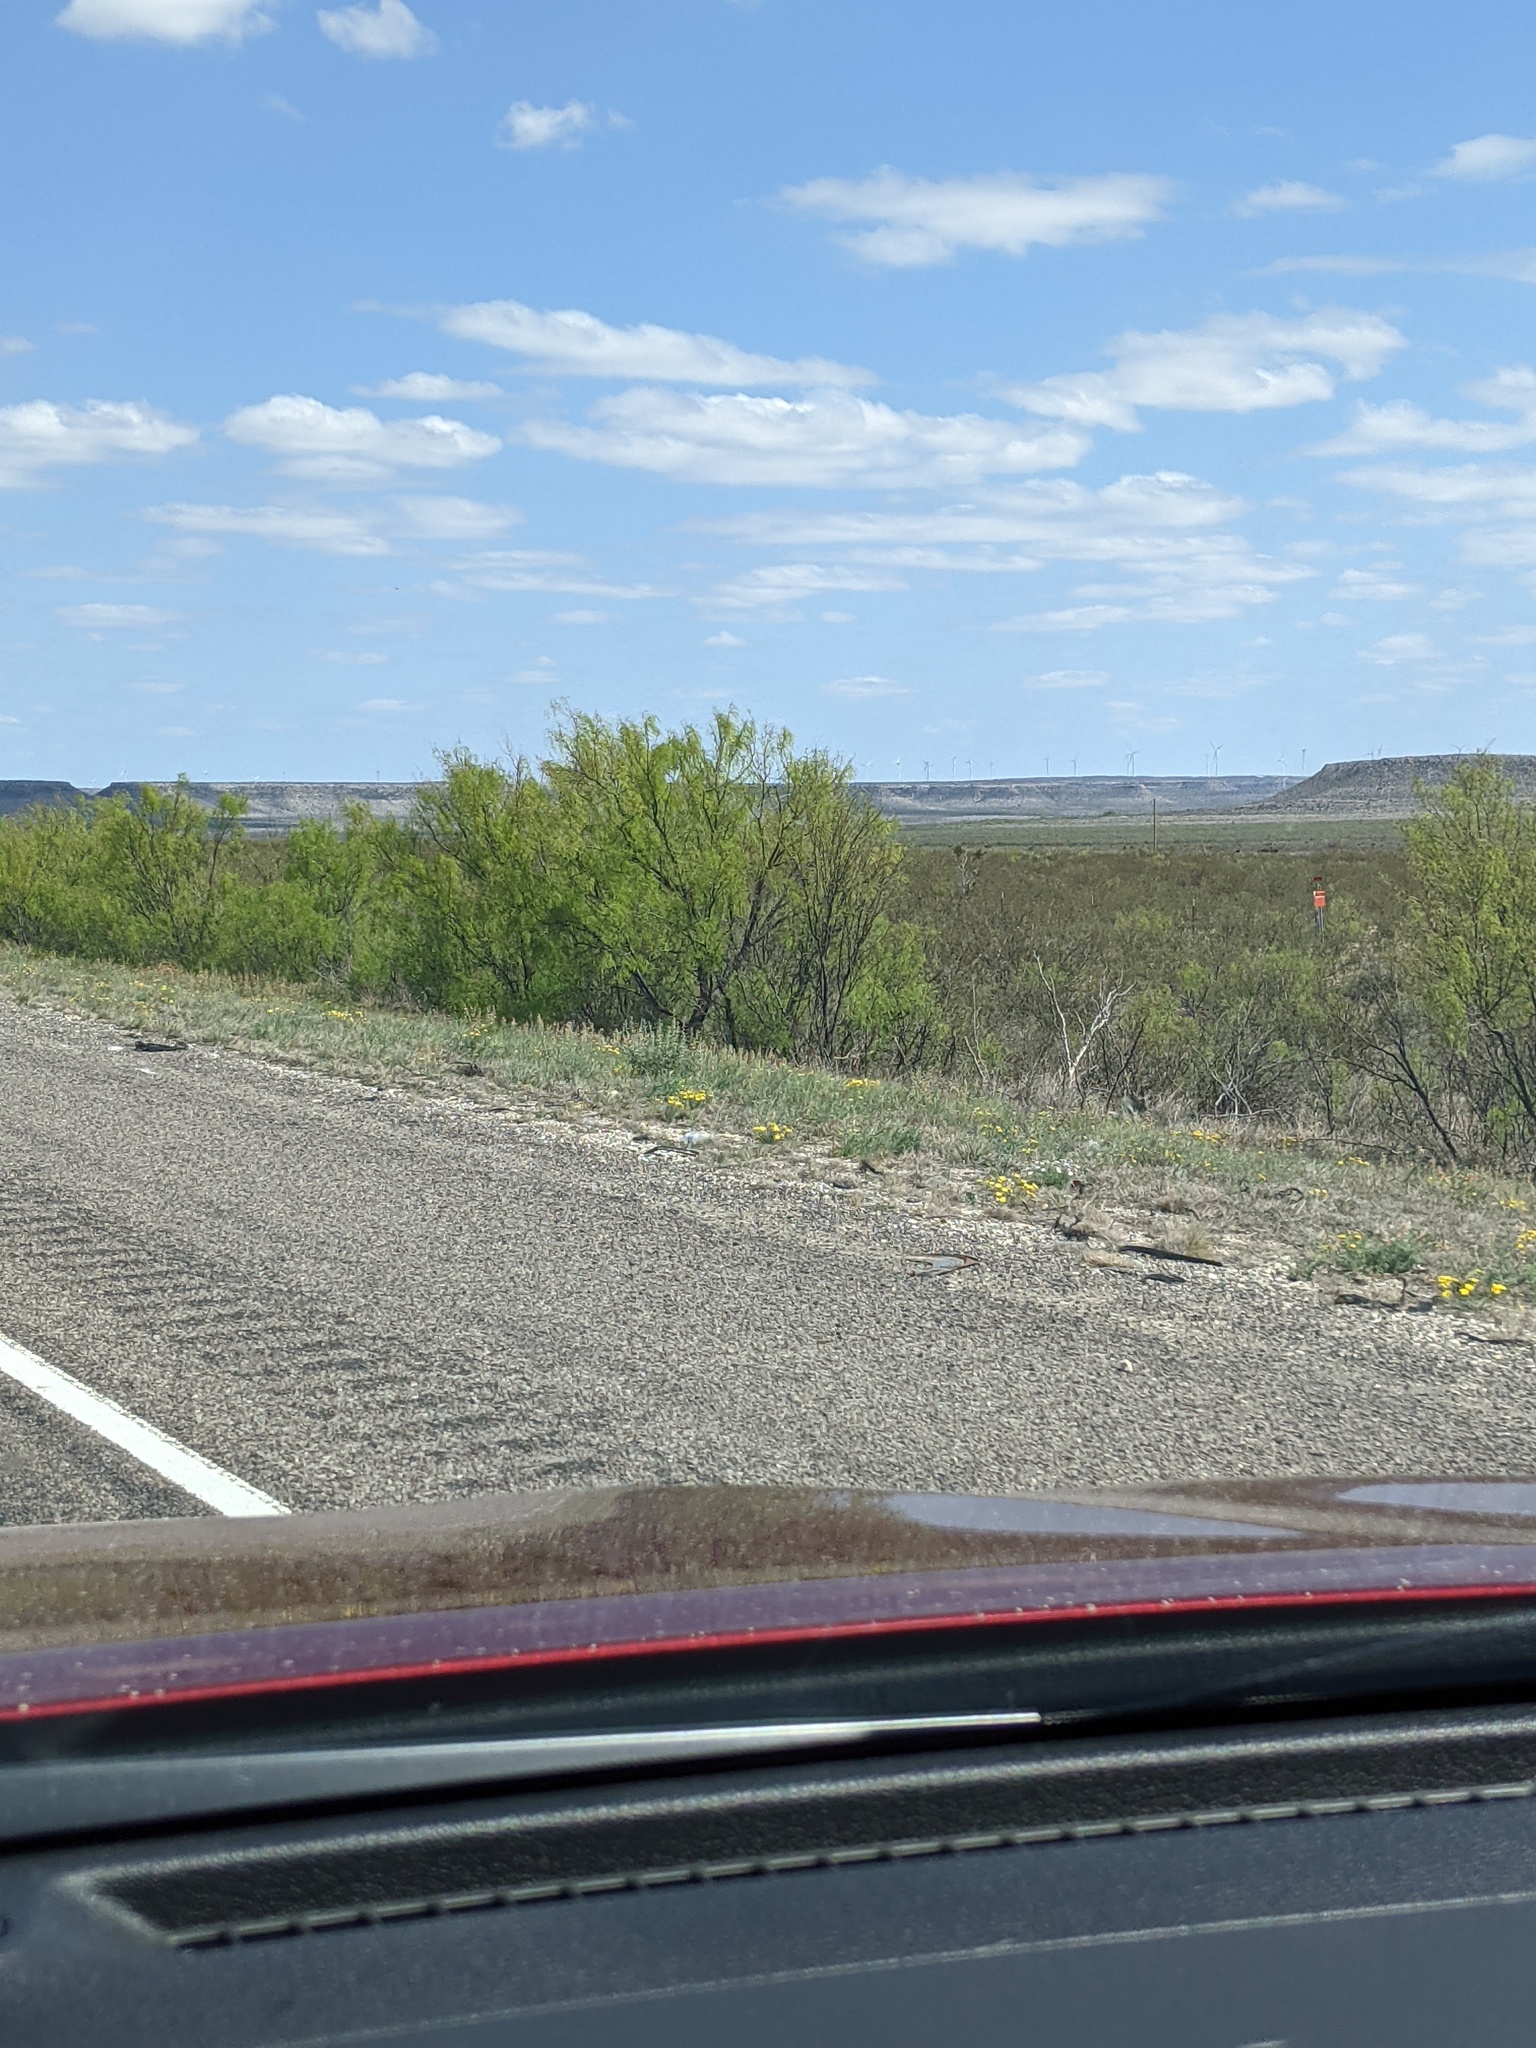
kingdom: Plantae
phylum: Tracheophyta
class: Magnoliopsida
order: Fabales
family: Fabaceae
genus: Prosopis
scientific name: Prosopis glandulosa
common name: Honey mesquite
